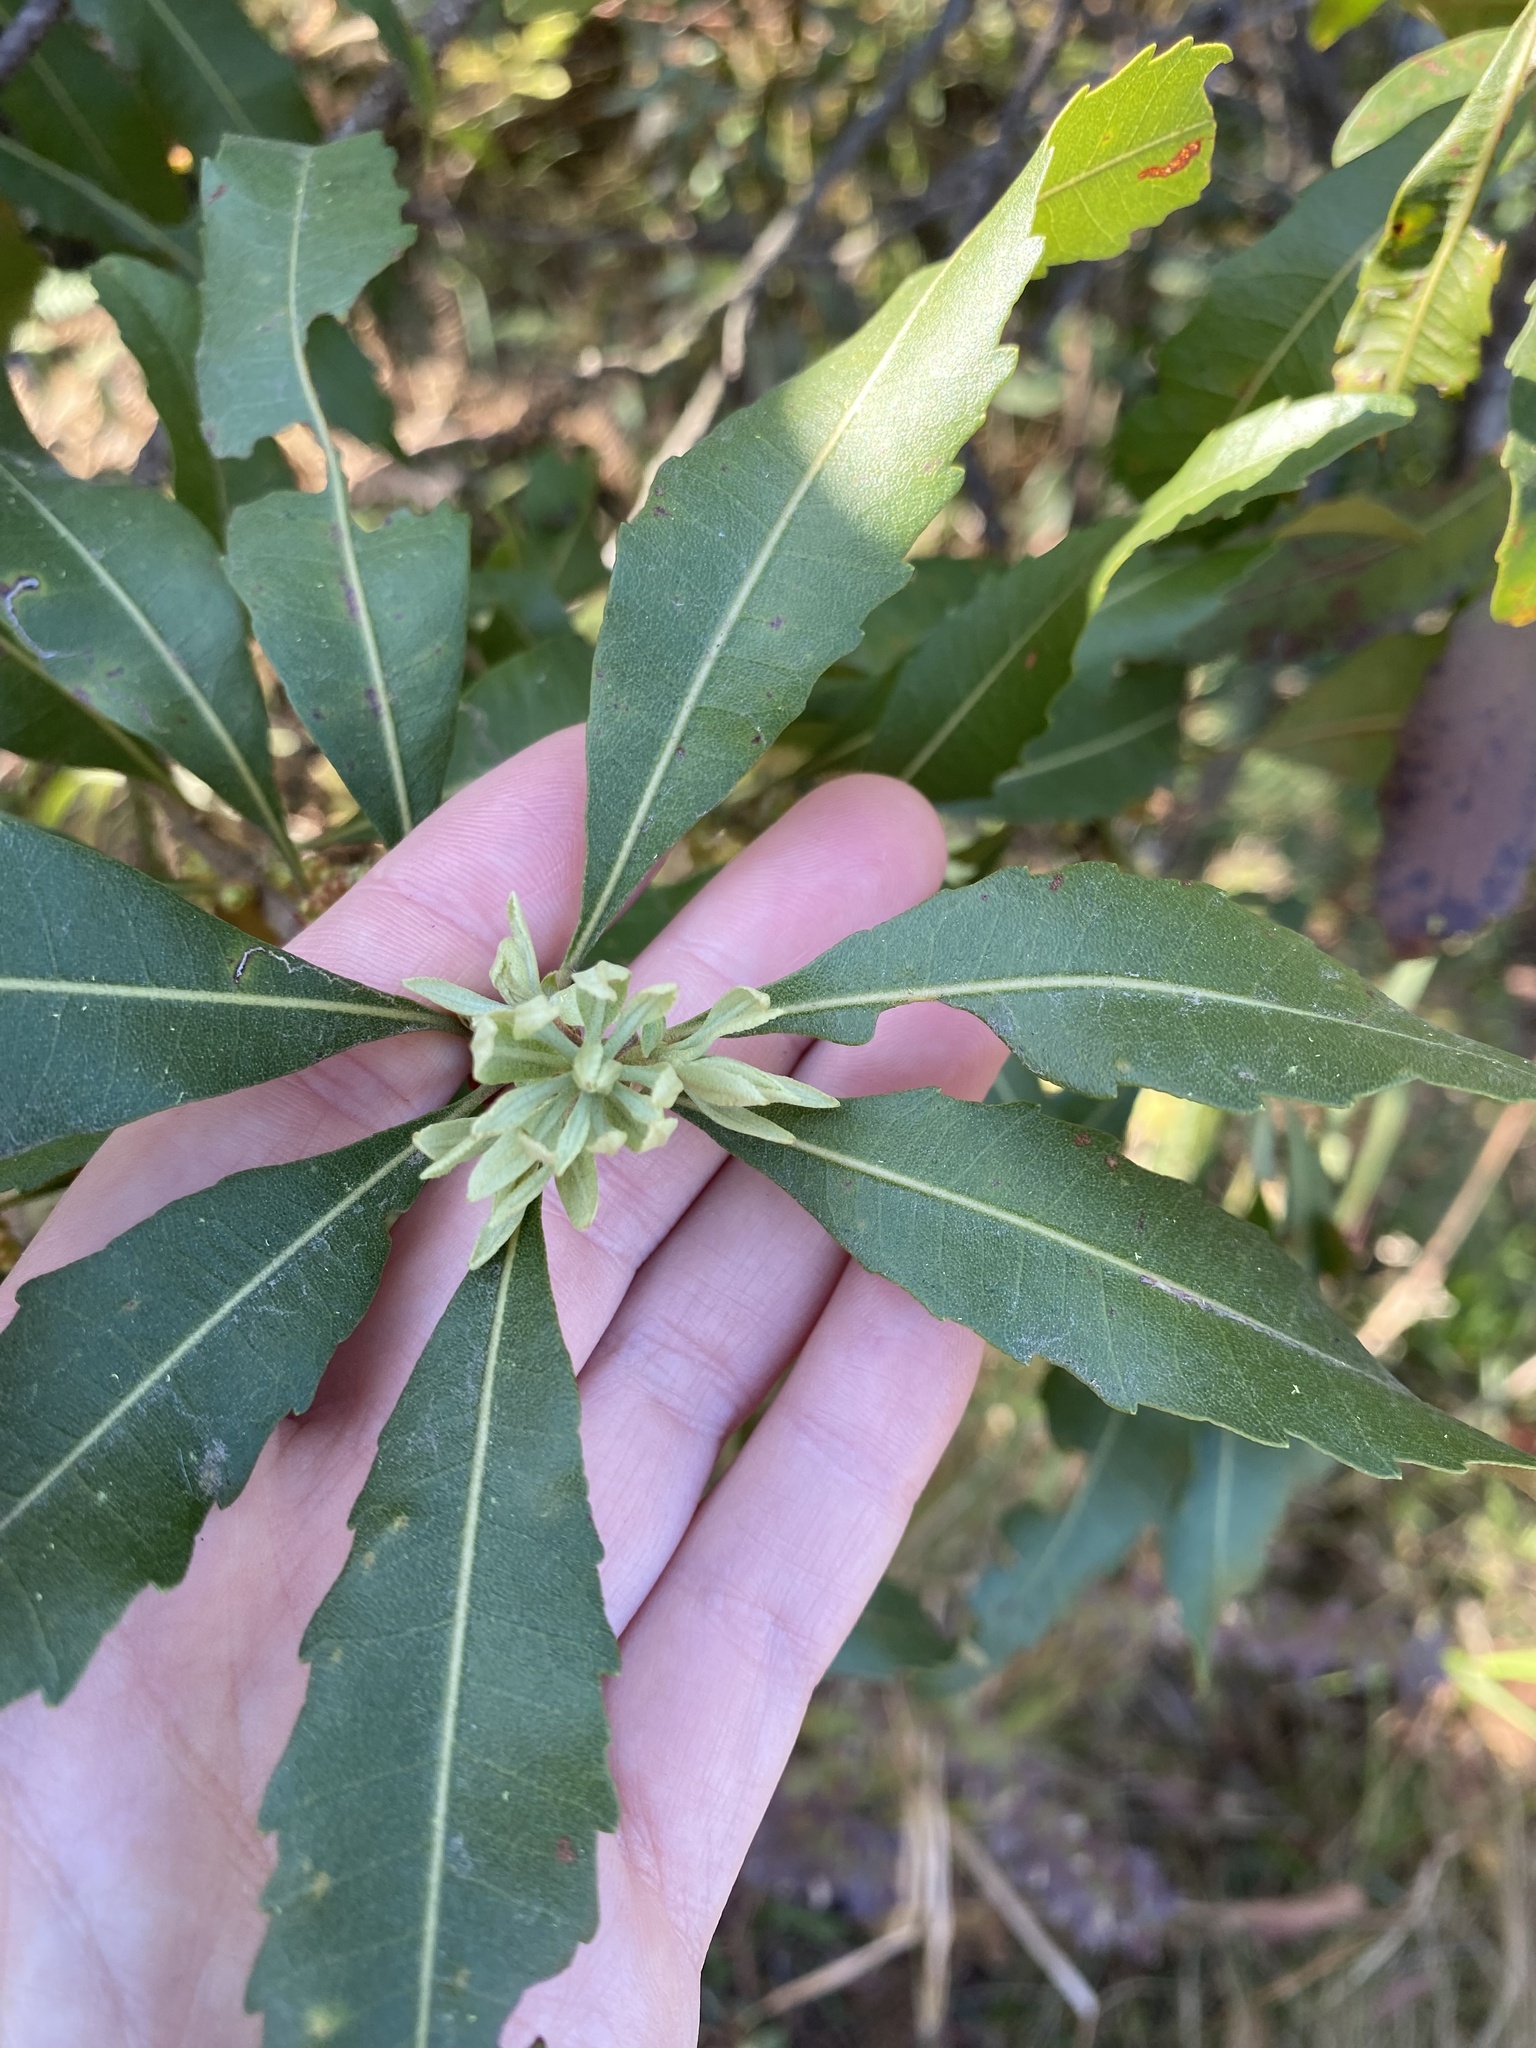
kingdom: Plantae
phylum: Tracheophyta
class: Magnoliopsida
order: Fagales
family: Myricaceae
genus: Morella
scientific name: Morella serrata
